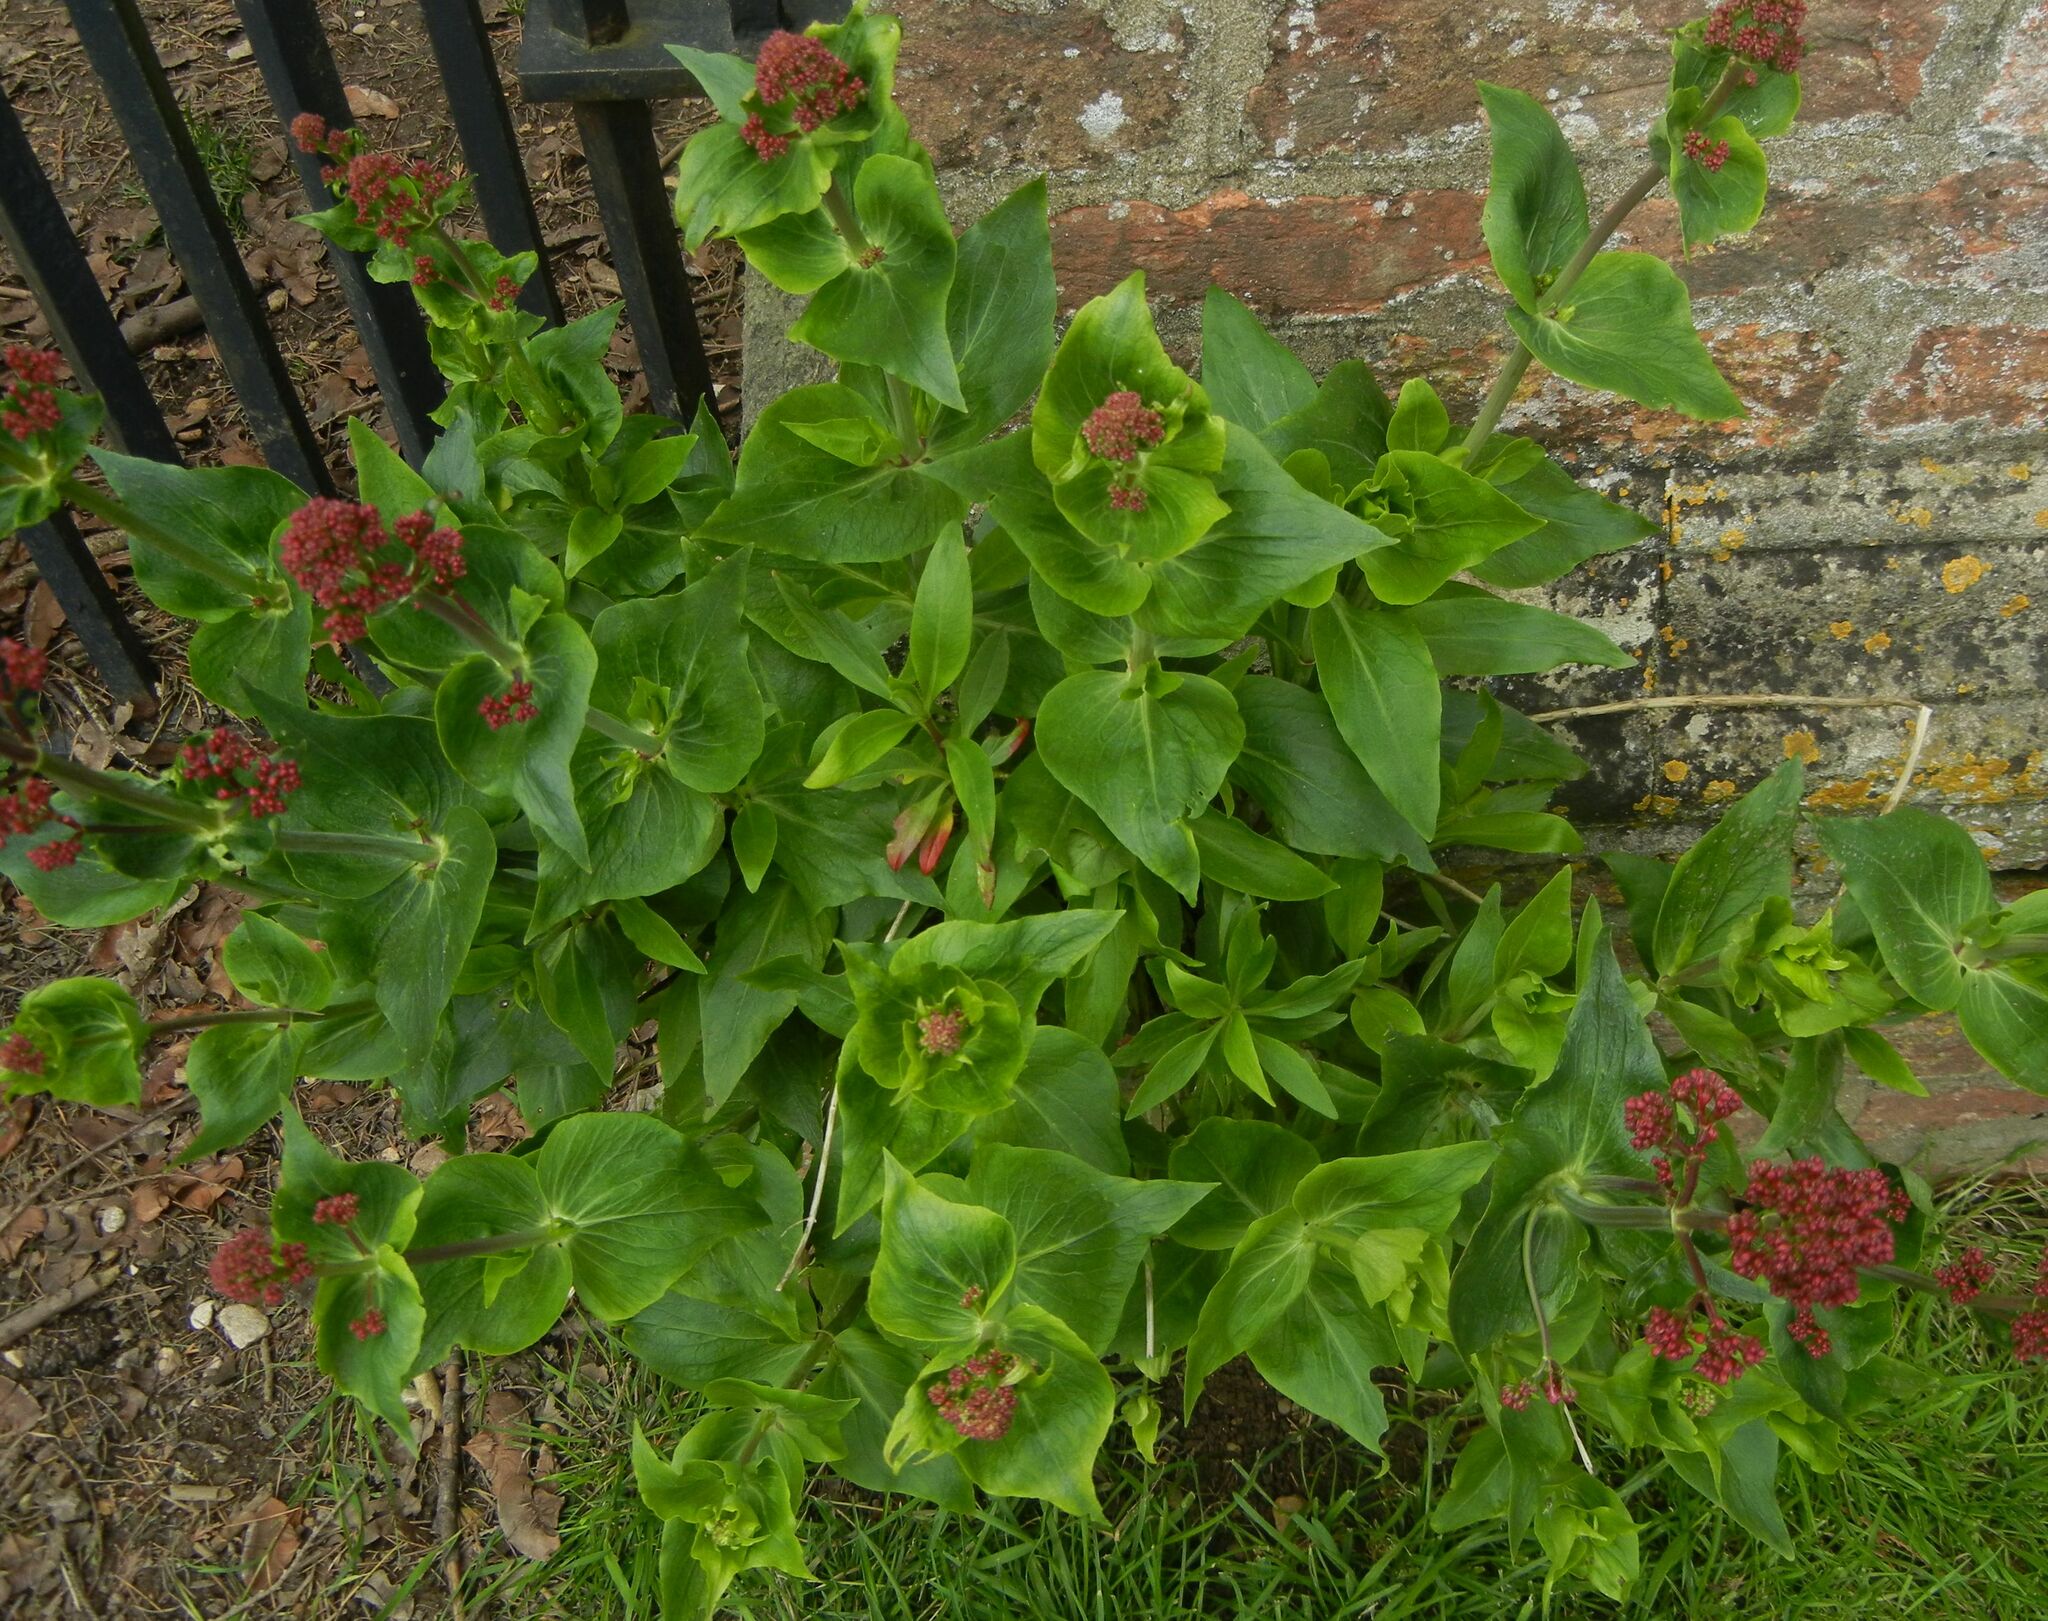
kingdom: Plantae
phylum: Tracheophyta
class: Magnoliopsida
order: Dipsacales
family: Caprifoliaceae
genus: Centranthus
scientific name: Centranthus ruber
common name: Red valerian
